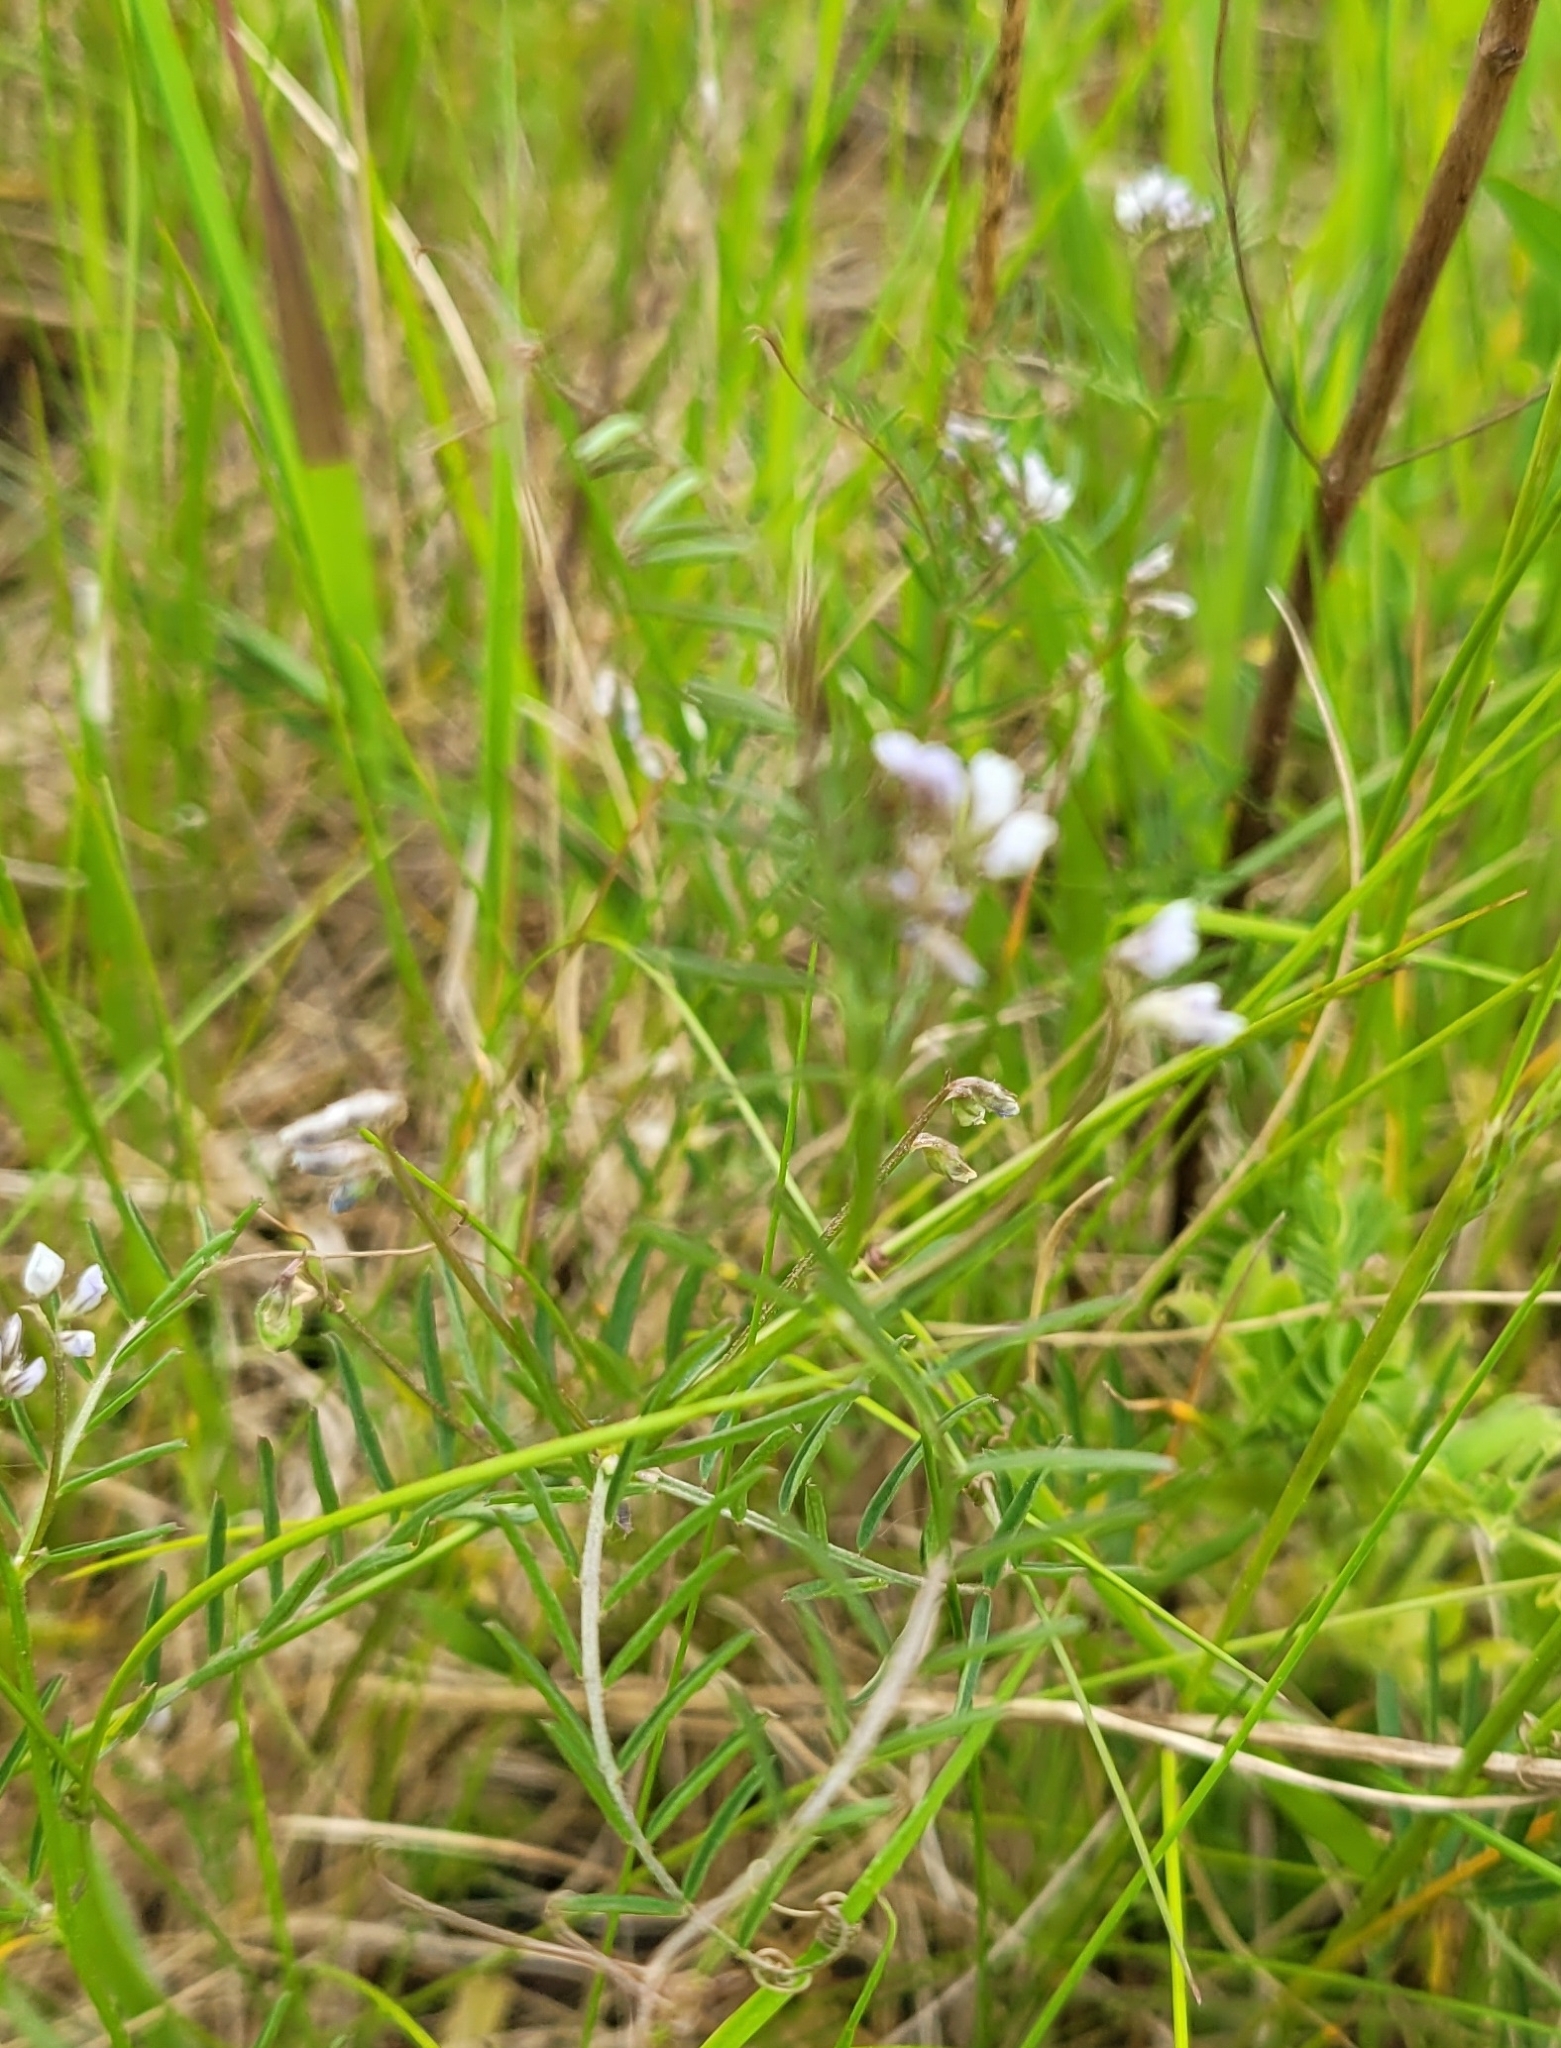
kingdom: Plantae
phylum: Tracheophyta
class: Magnoliopsida
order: Fabales
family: Fabaceae
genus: Vicia
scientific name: Vicia hirsuta
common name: Tiny vetch
